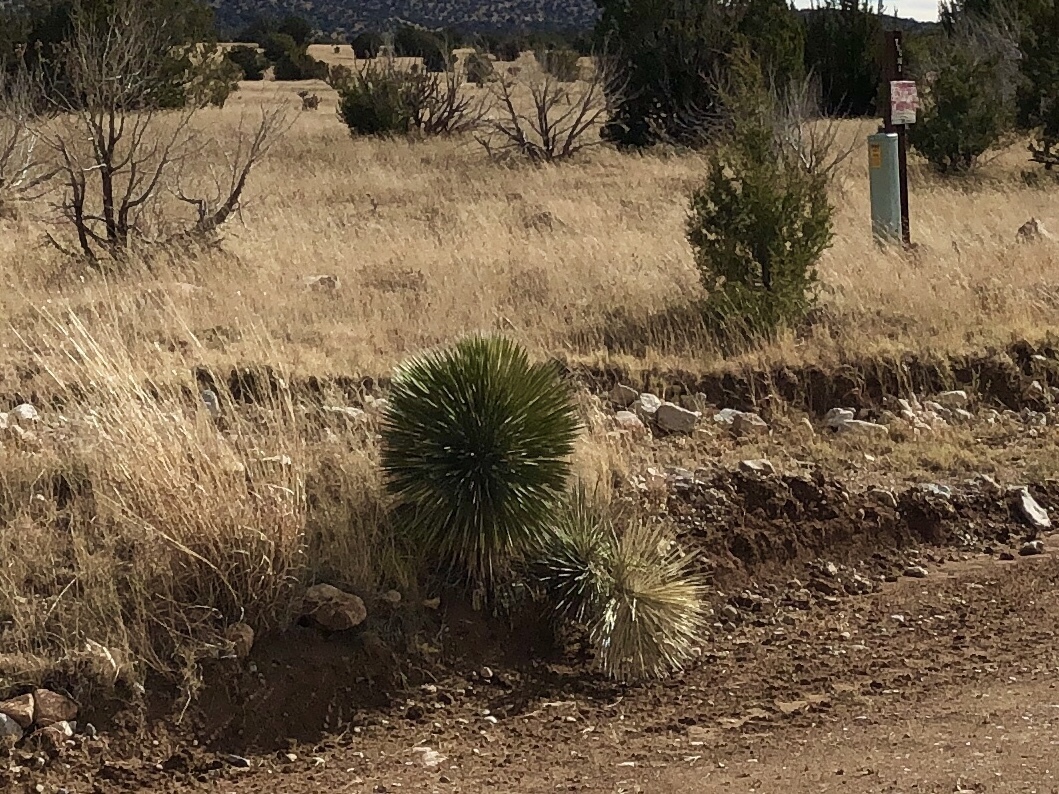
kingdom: Plantae
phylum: Tracheophyta
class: Liliopsida
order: Asparagales
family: Asparagaceae
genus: Yucca
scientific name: Yucca elata
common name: Palmella
